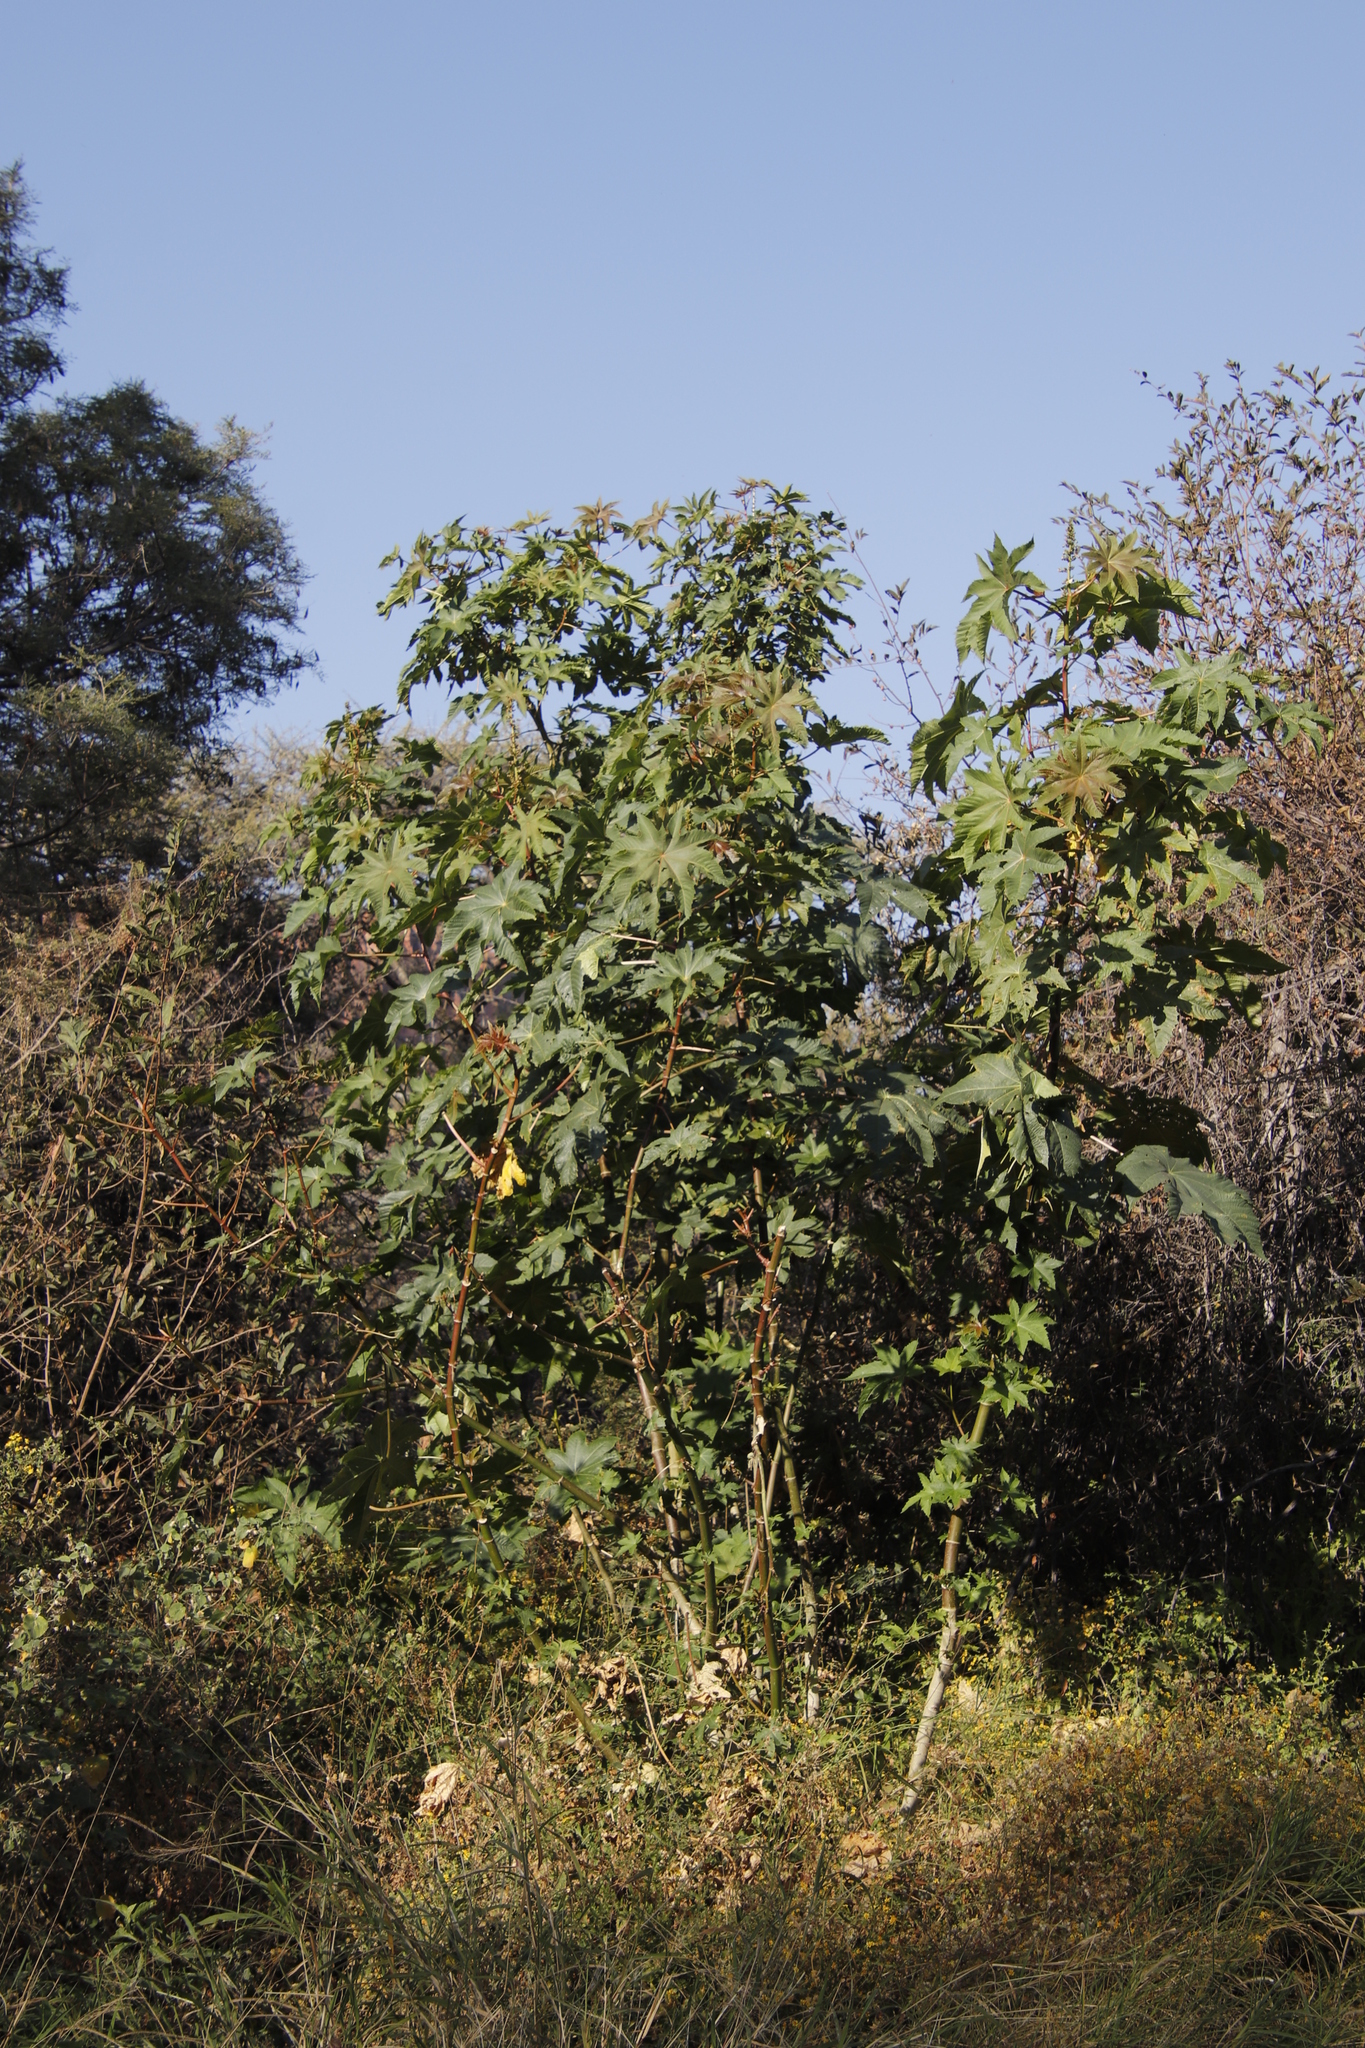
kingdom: Plantae
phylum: Tracheophyta
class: Magnoliopsida
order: Malpighiales
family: Euphorbiaceae
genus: Ricinus
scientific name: Ricinus communis
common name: Castor-oil-plant
